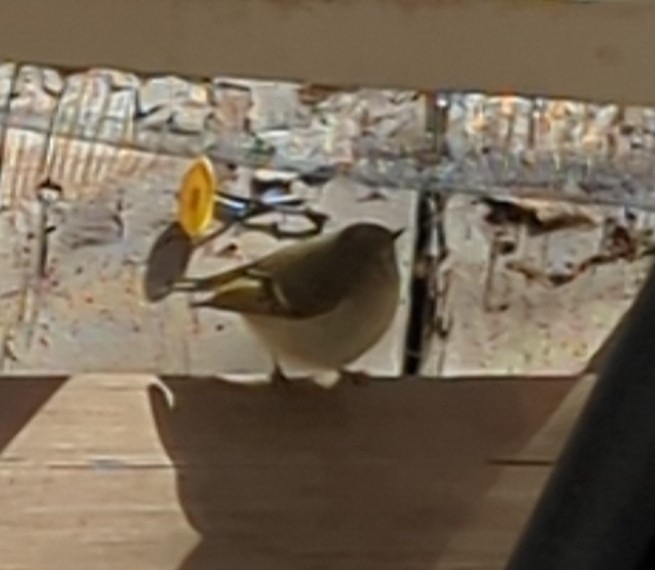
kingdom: Animalia
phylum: Chordata
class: Aves
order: Passeriformes
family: Regulidae
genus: Regulus
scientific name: Regulus calendula
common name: Ruby-crowned kinglet
